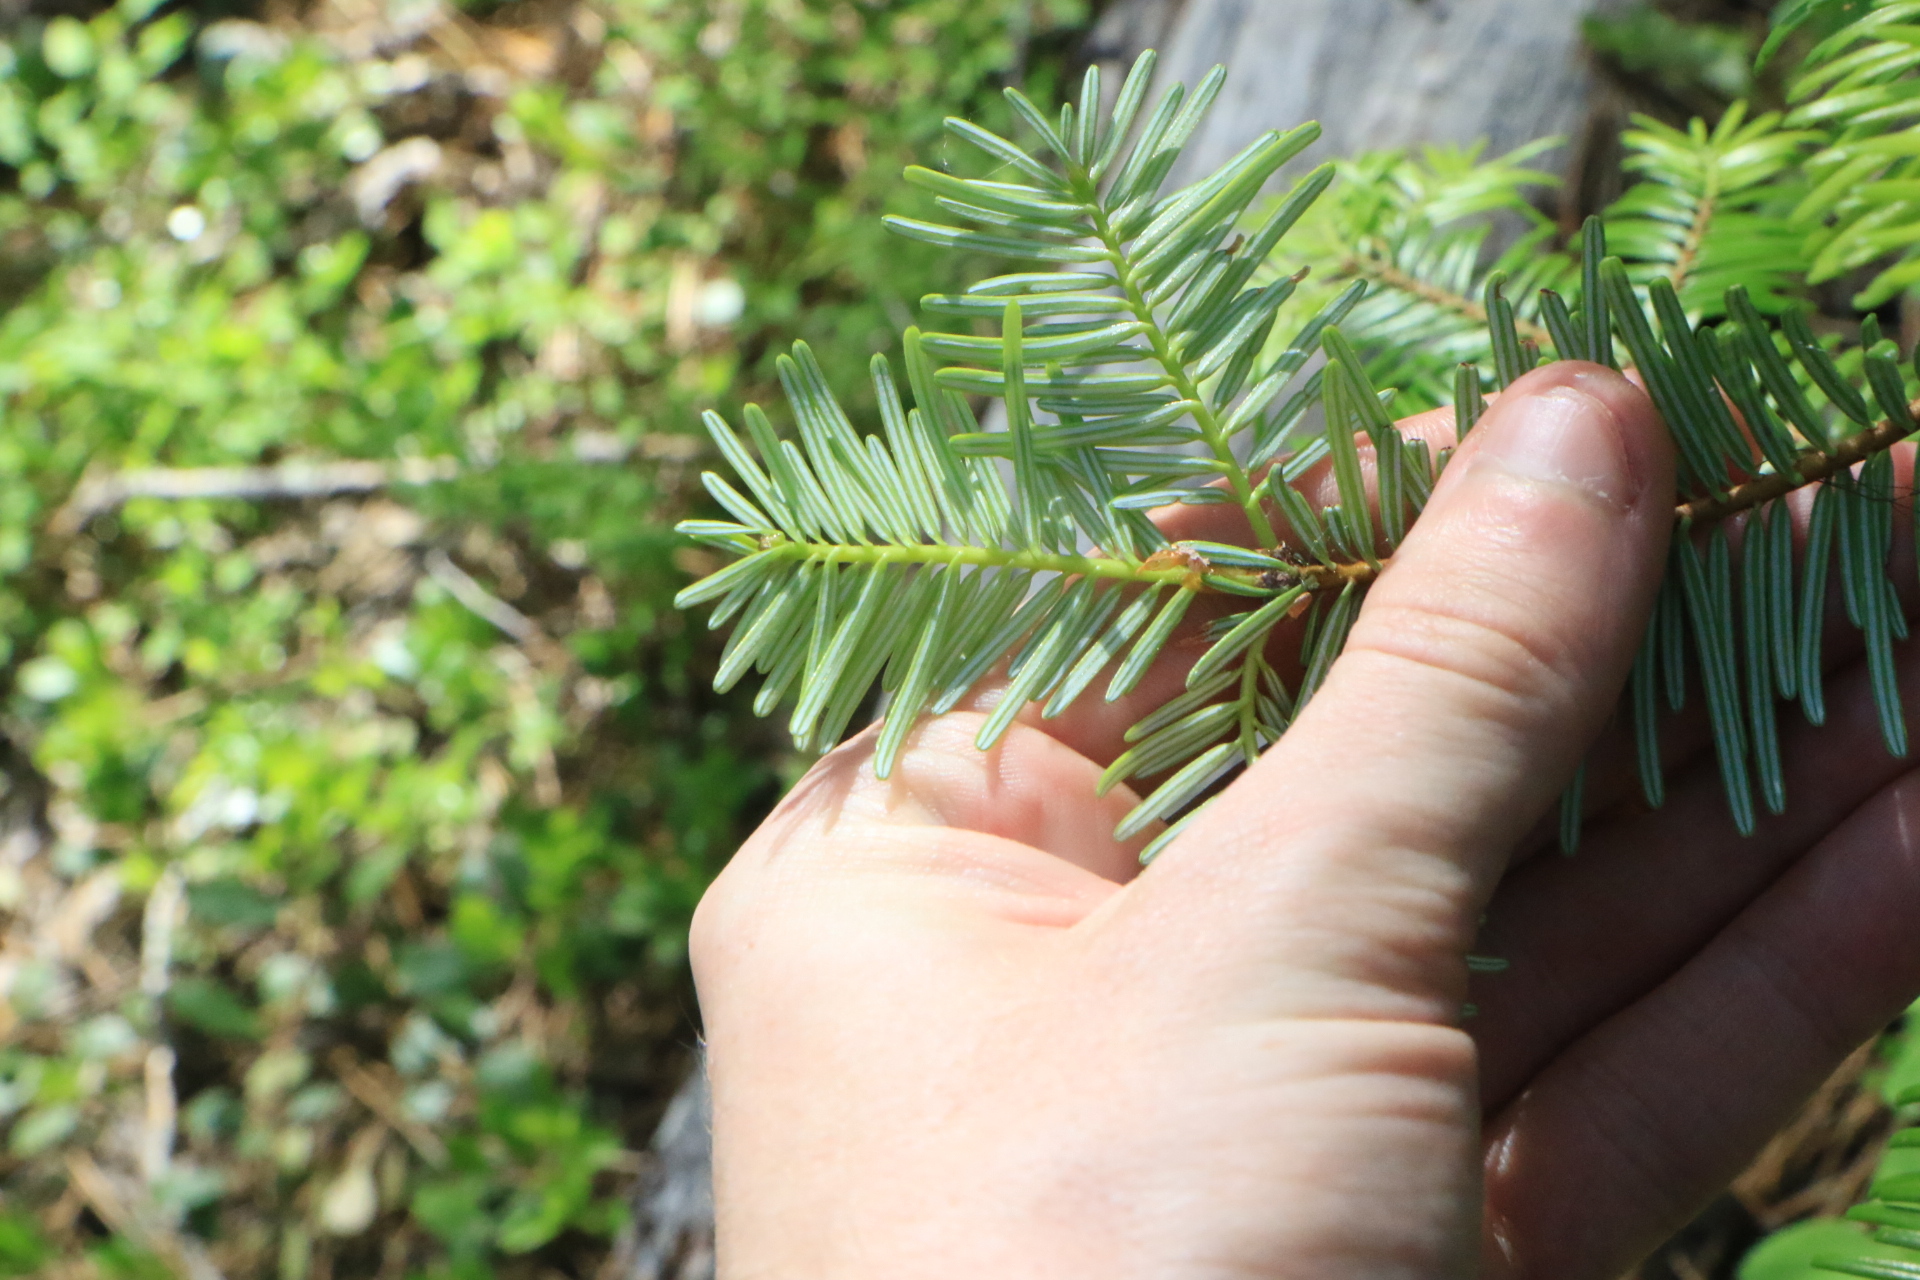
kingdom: Plantae
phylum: Tracheophyta
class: Pinopsida
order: Pinales
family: Pinaceae
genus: Abies
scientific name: Abies grandis
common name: Giant fir
